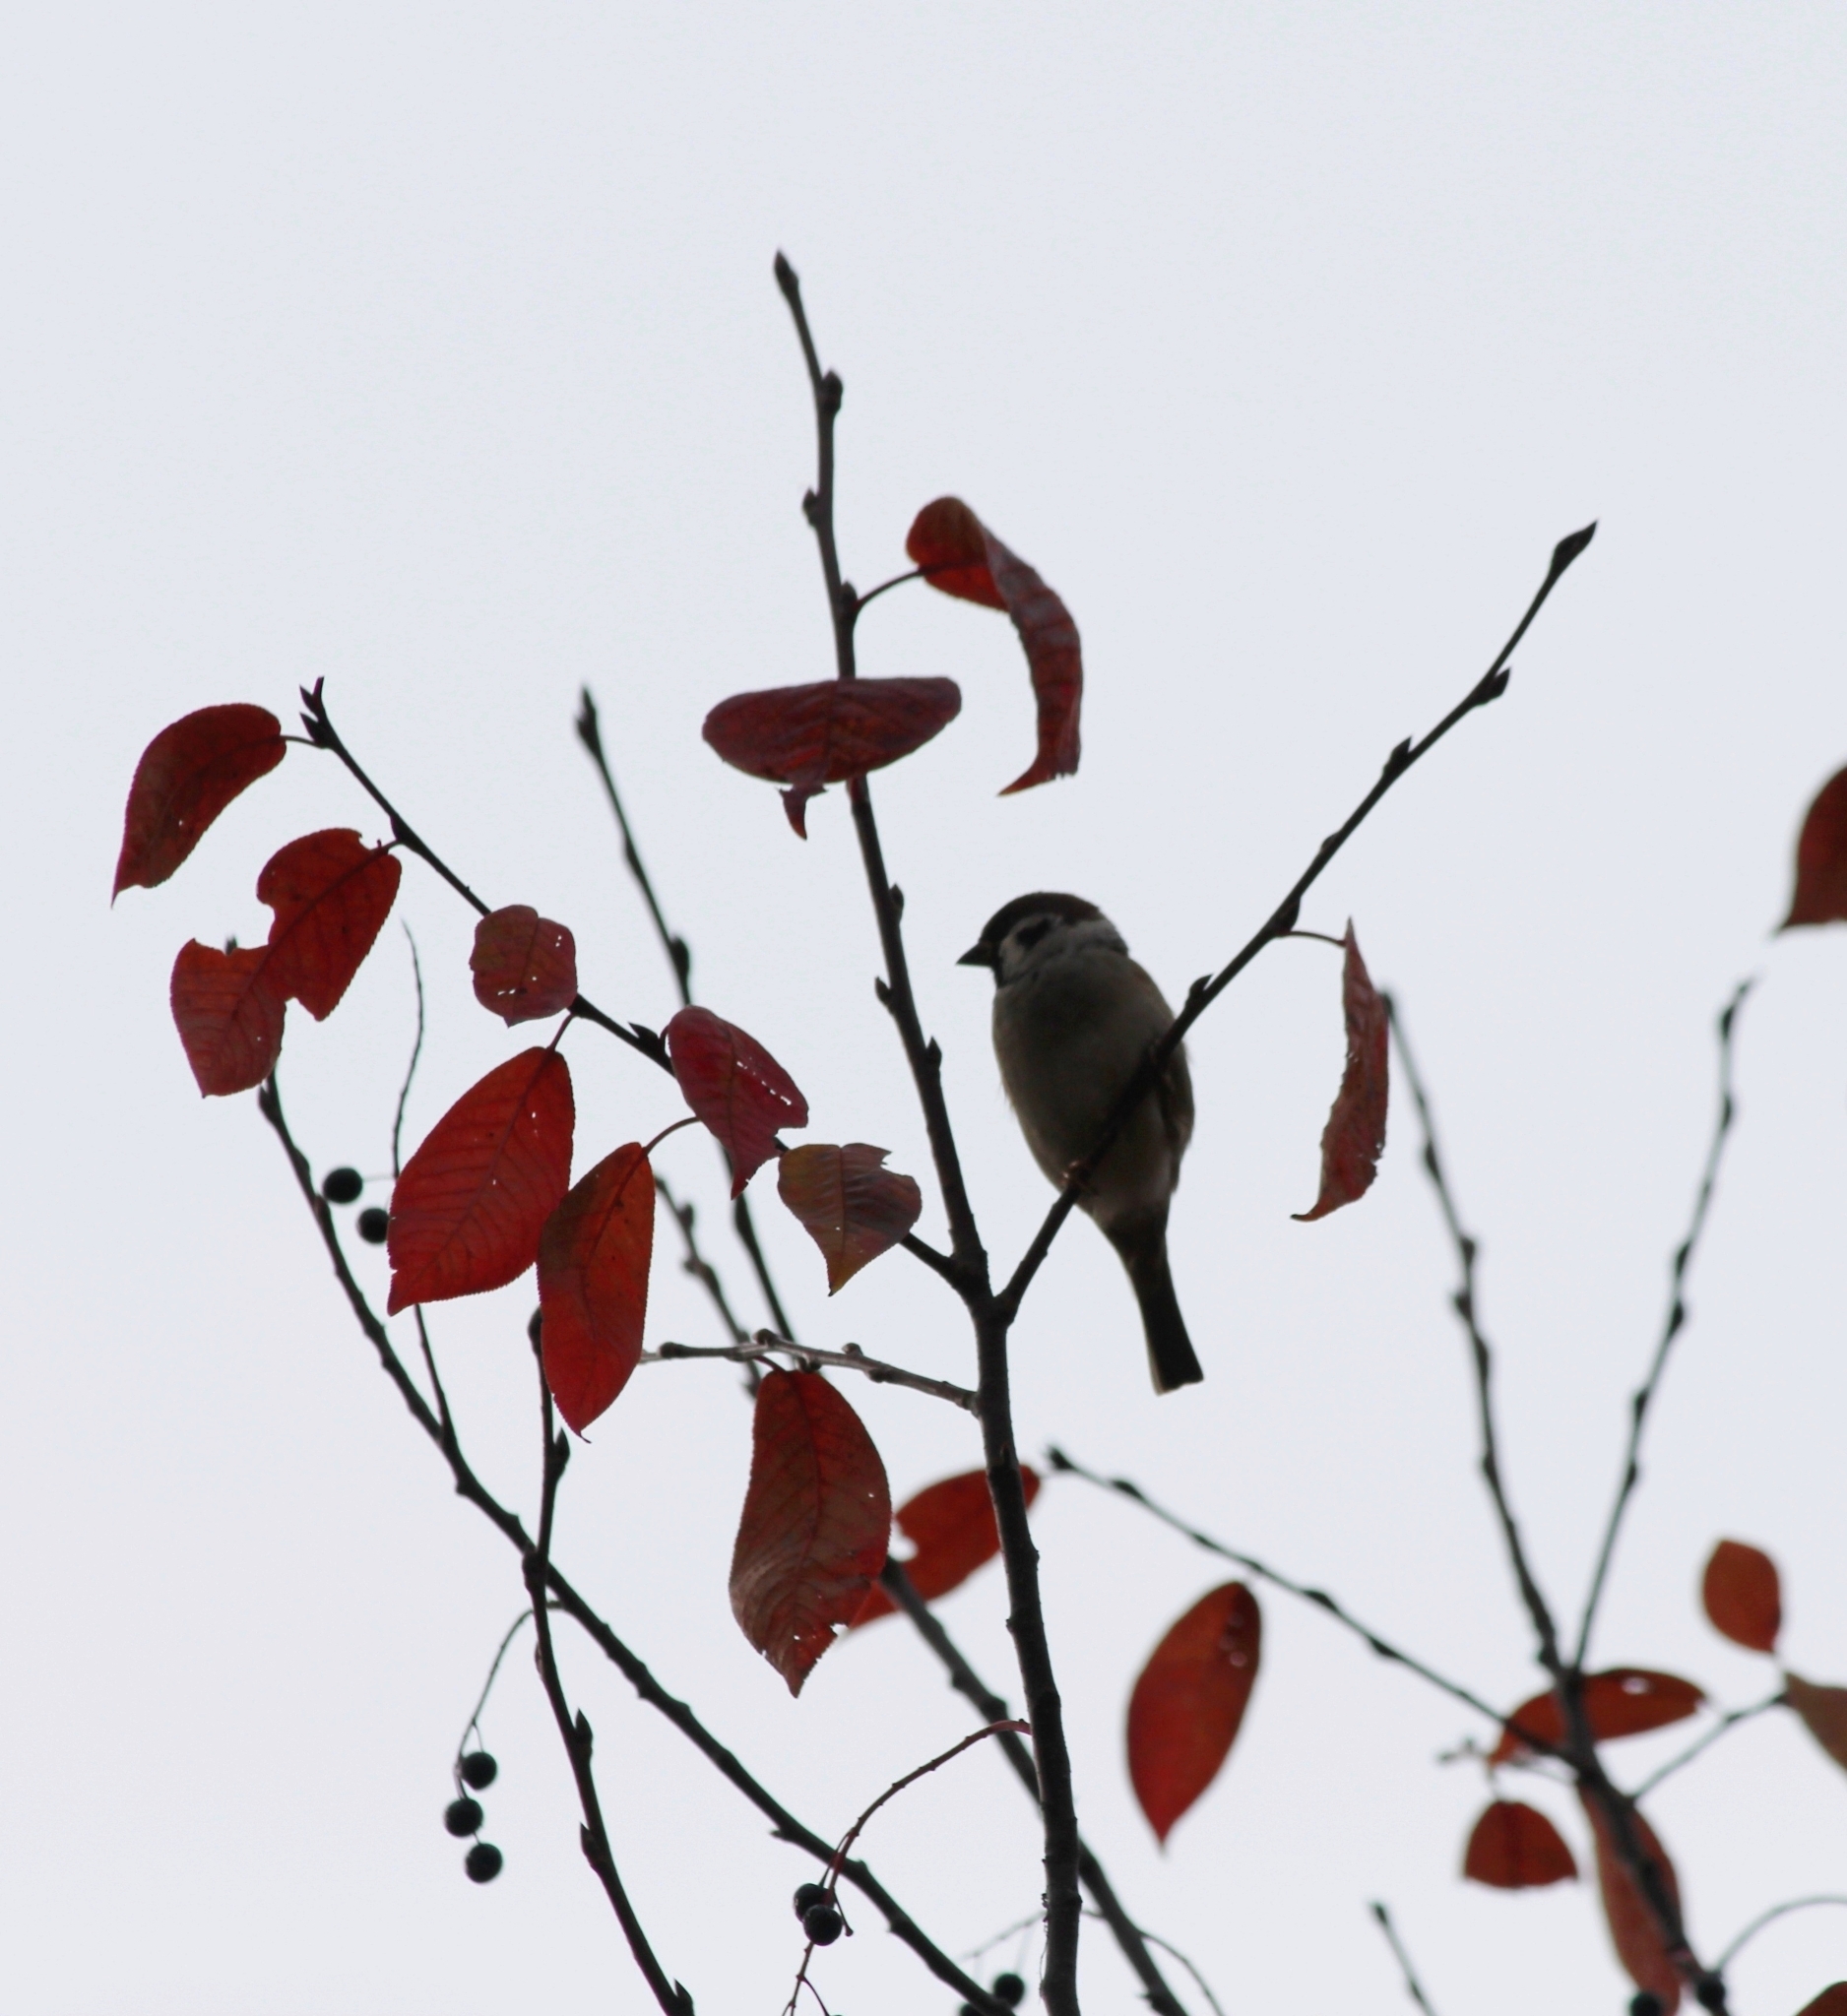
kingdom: Animalia
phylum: Chordata
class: Aves
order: Passeriformes
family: Passeridae
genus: Passer
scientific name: Passer montanus
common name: Eurasian tree sparrow
